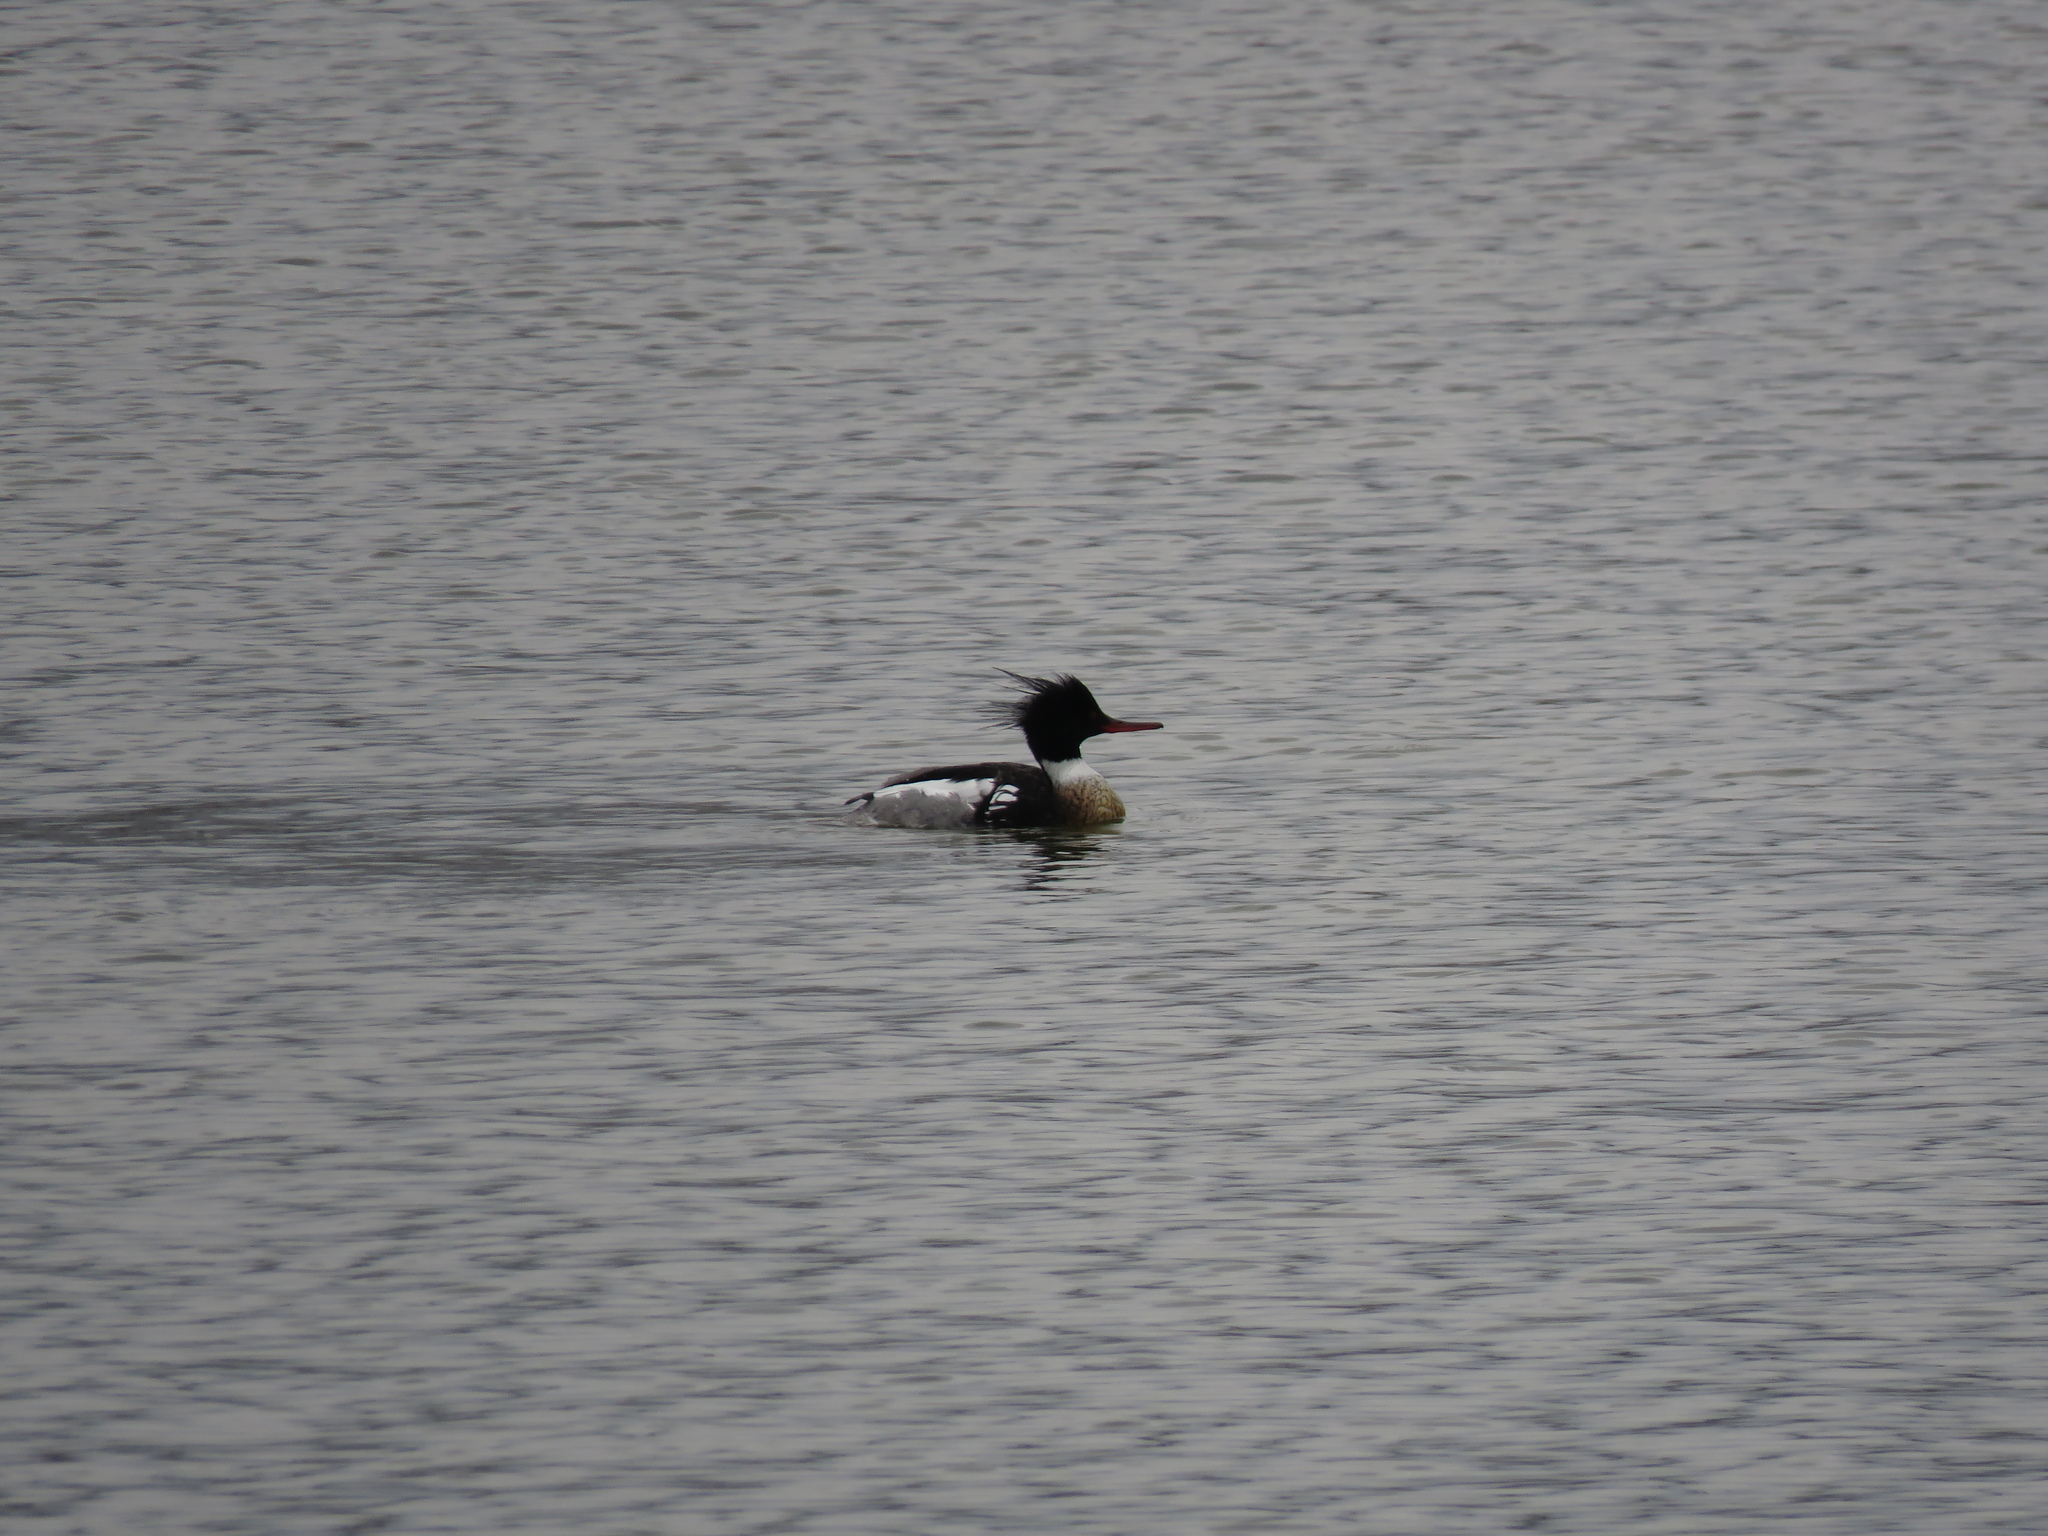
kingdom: Animalia
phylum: Chordata
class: Aves
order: Anseriformes
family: Anatidae
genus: Mergus
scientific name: Mergus serrator
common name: Red-breasted merganser
